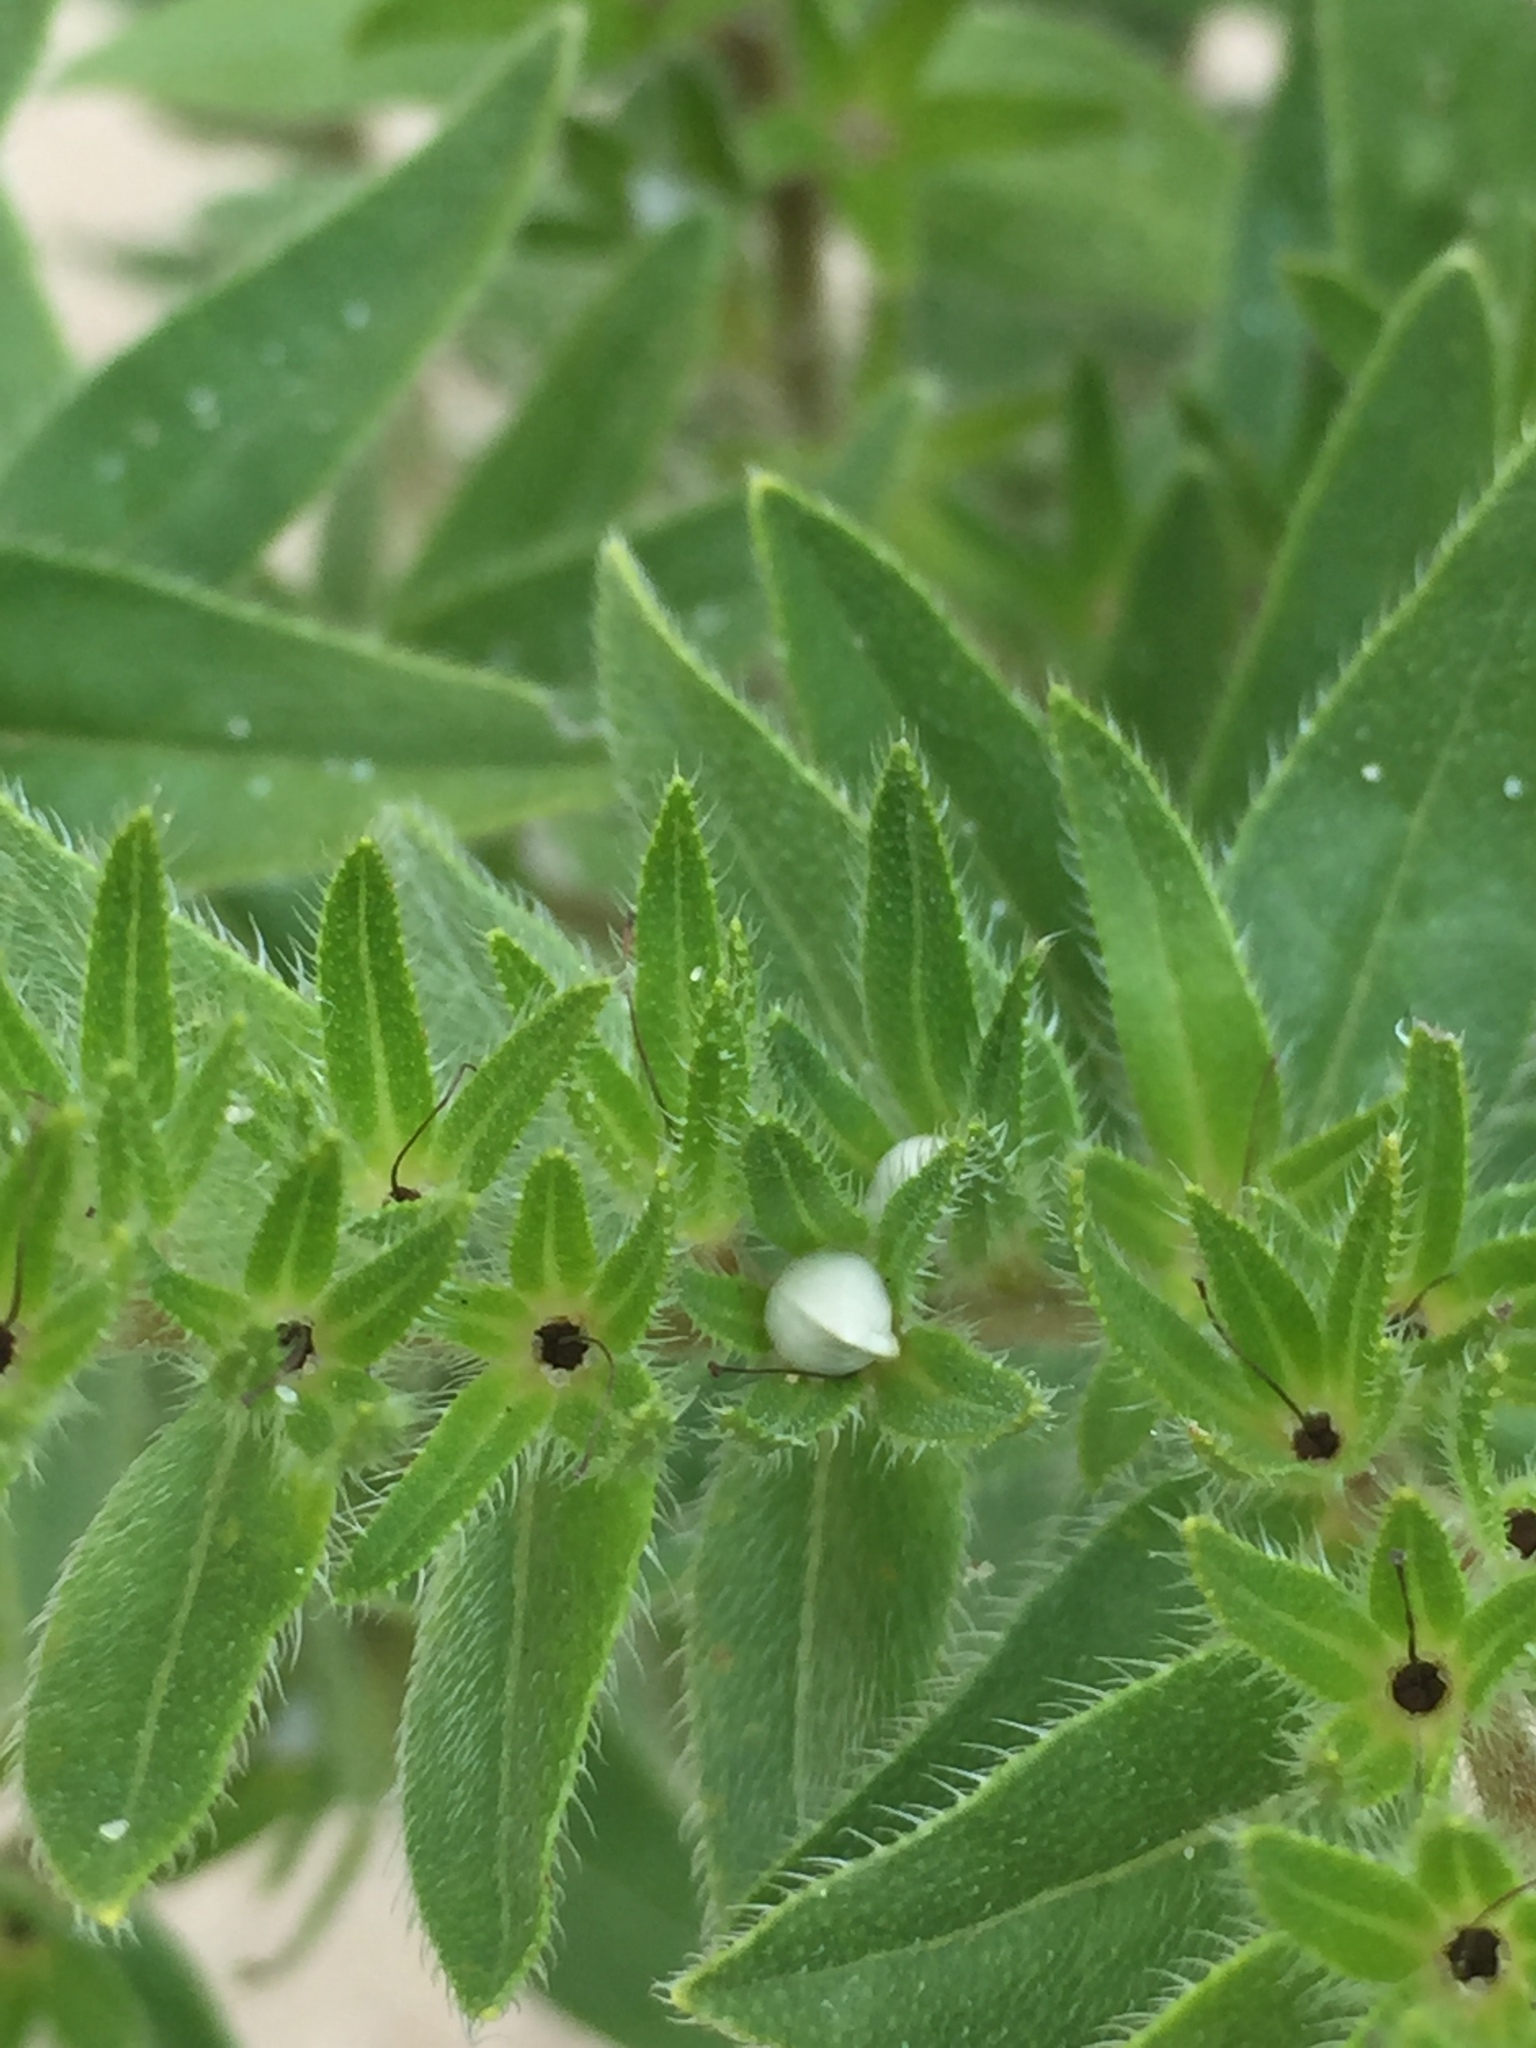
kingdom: Plantae
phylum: Tracheophyta
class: Magnoliopsida
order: Boraginales
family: Boraginaceae
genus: Lithospermum
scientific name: Lithospermum caroliniense
